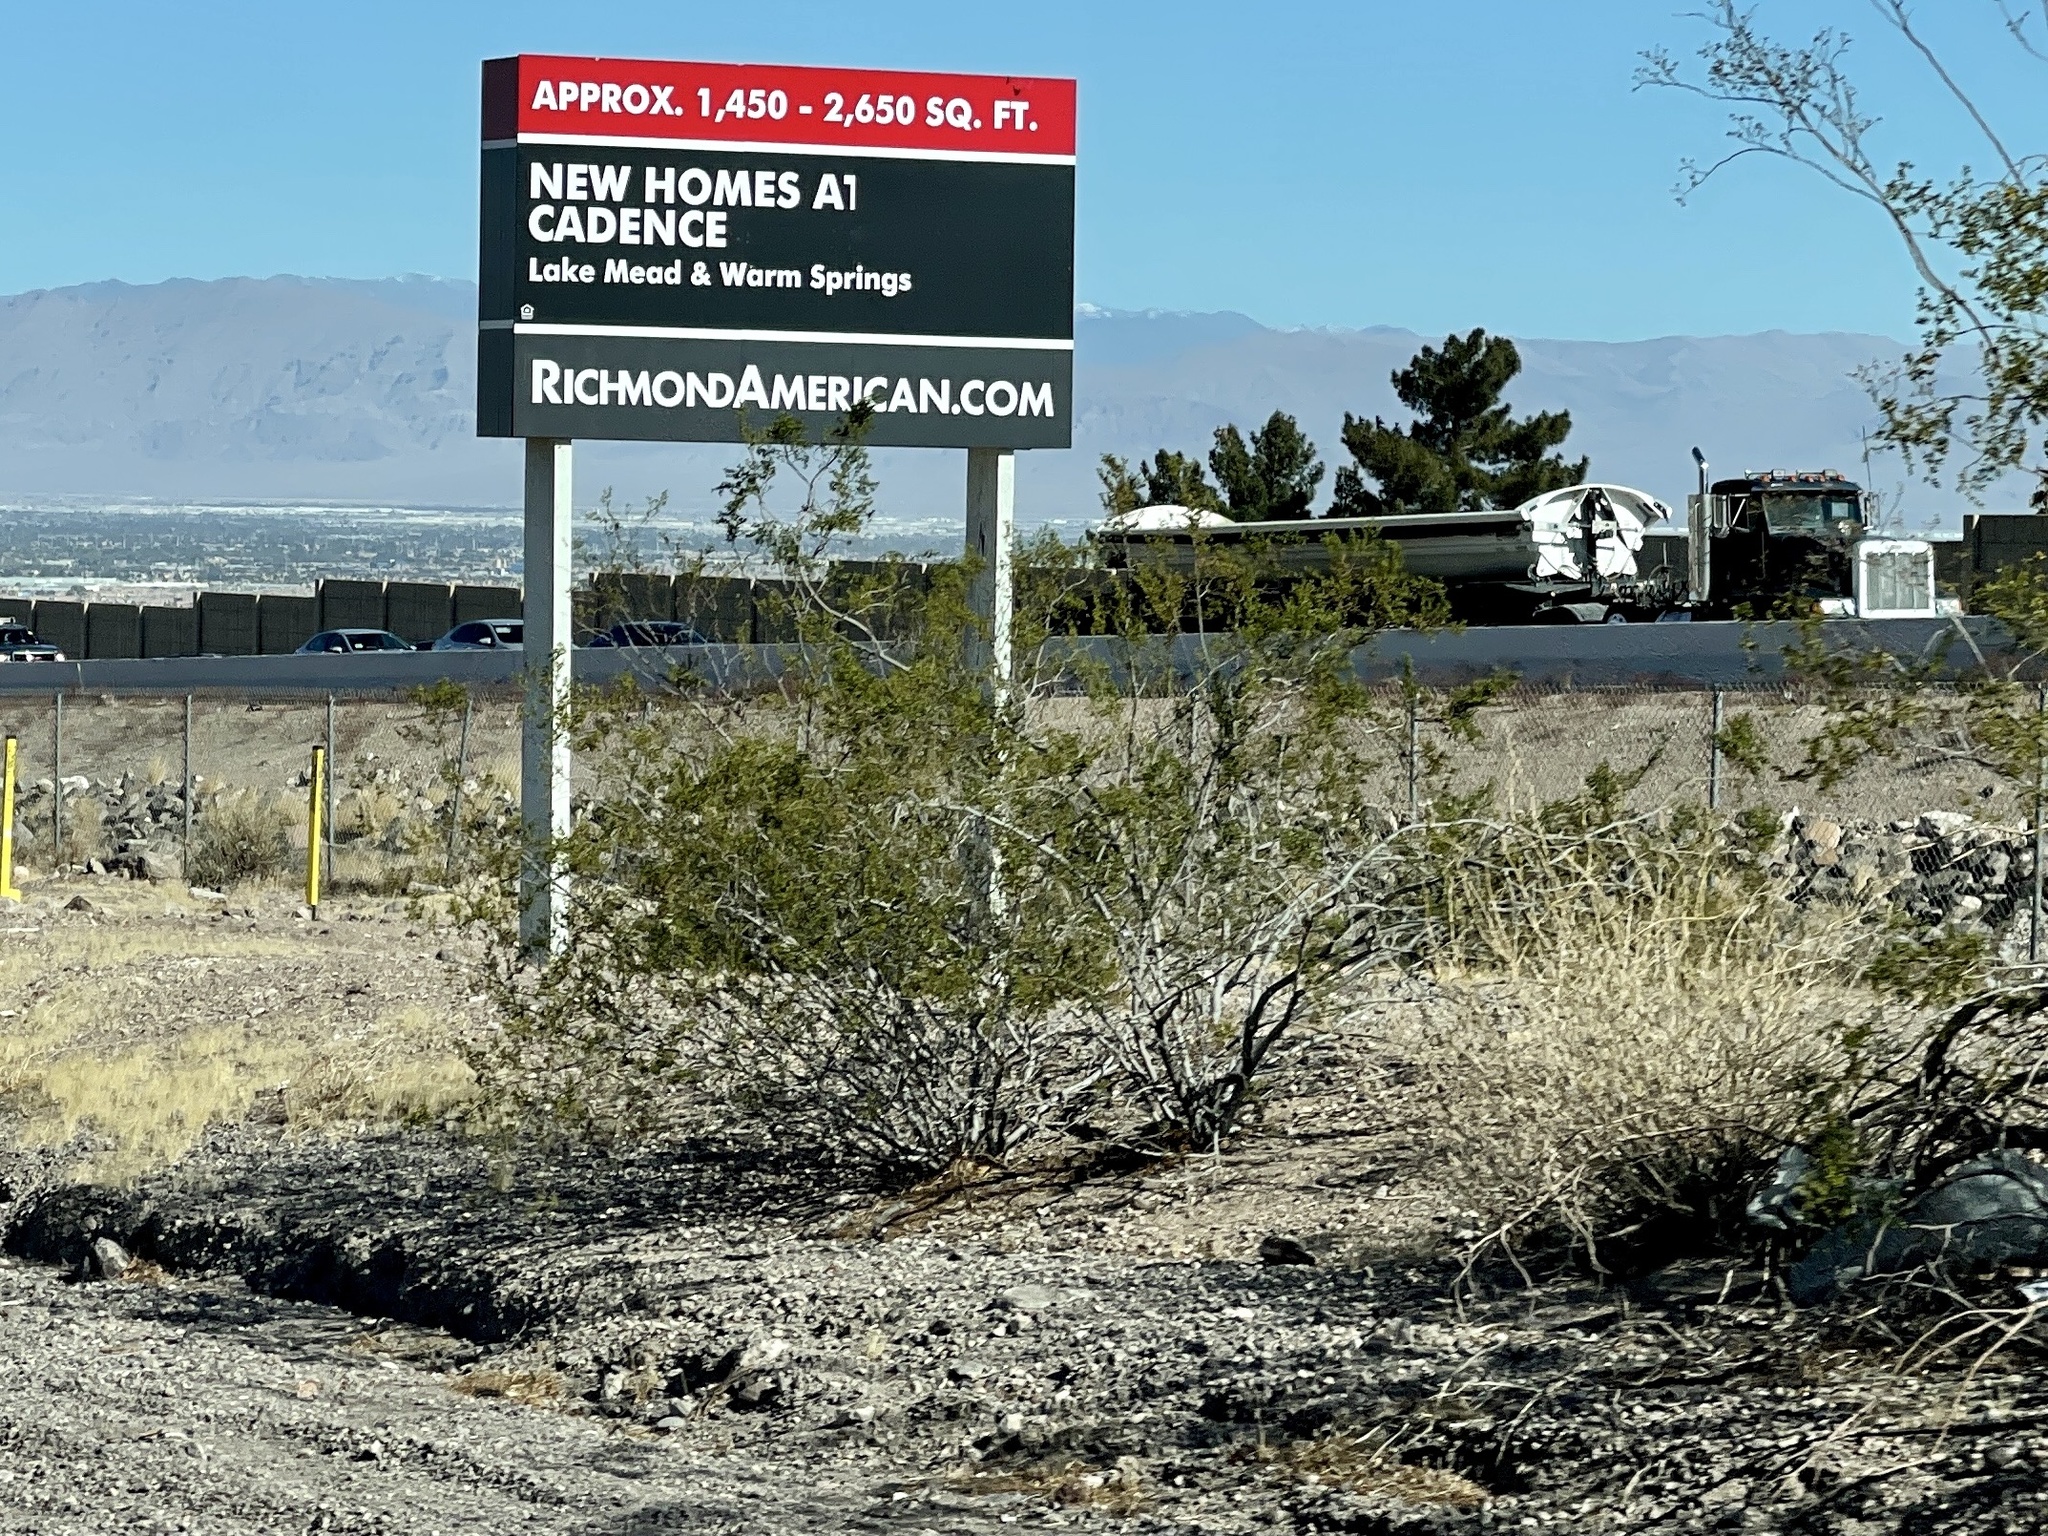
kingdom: Plantae
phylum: Tracheophyta
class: Magnoliopsida
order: Zygophyllales
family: Zygophyllaceae
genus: Larrea
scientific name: Larrea tridentata
